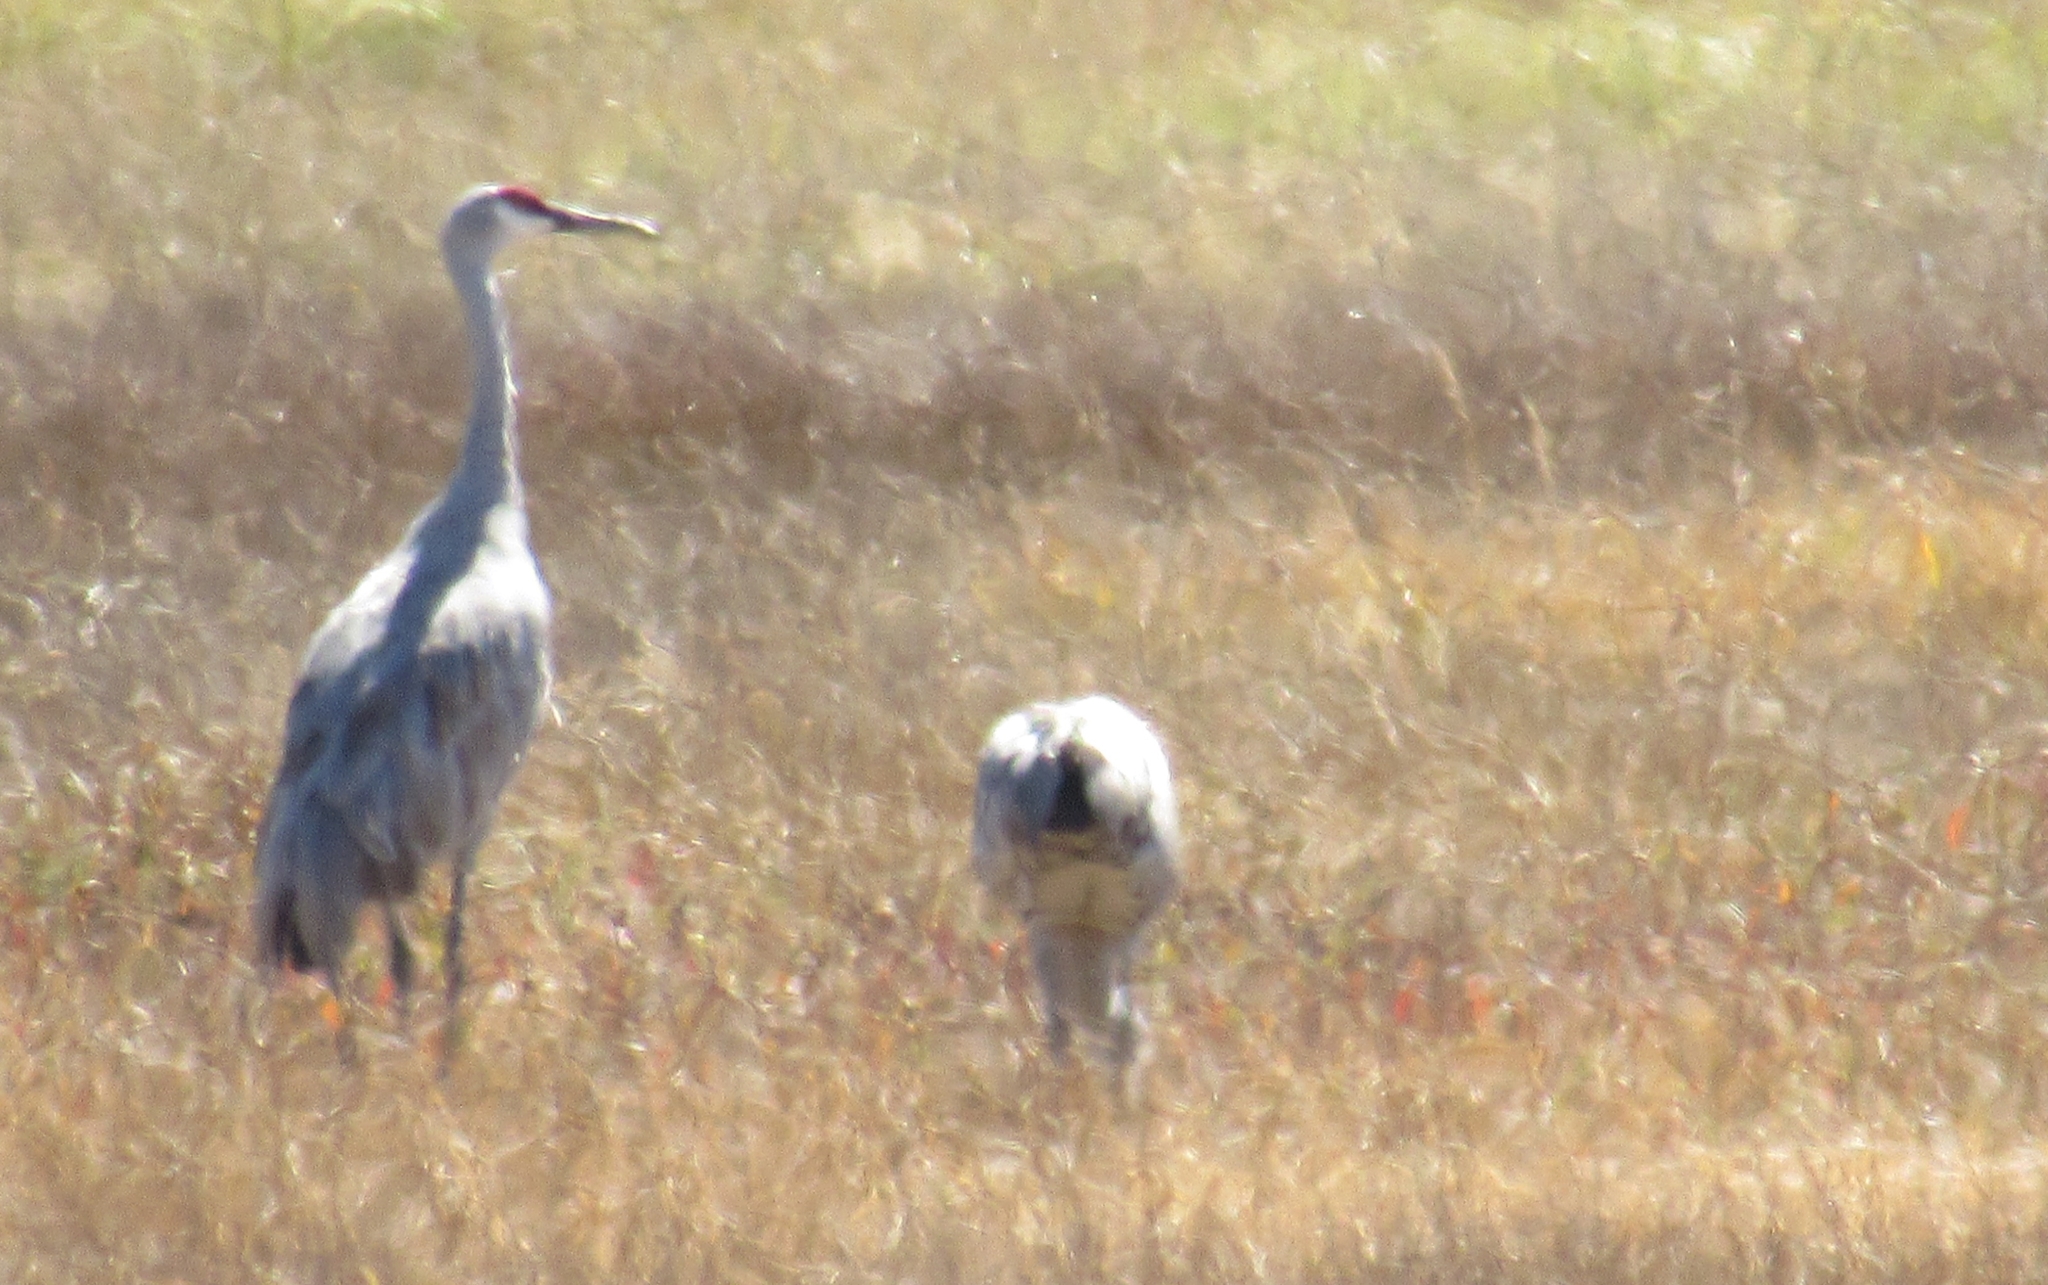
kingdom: Animalia
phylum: Chordata
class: Aves
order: Gruiformes
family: Gruidae
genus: Grus
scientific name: Grus canadensis
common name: Sandhill crane
